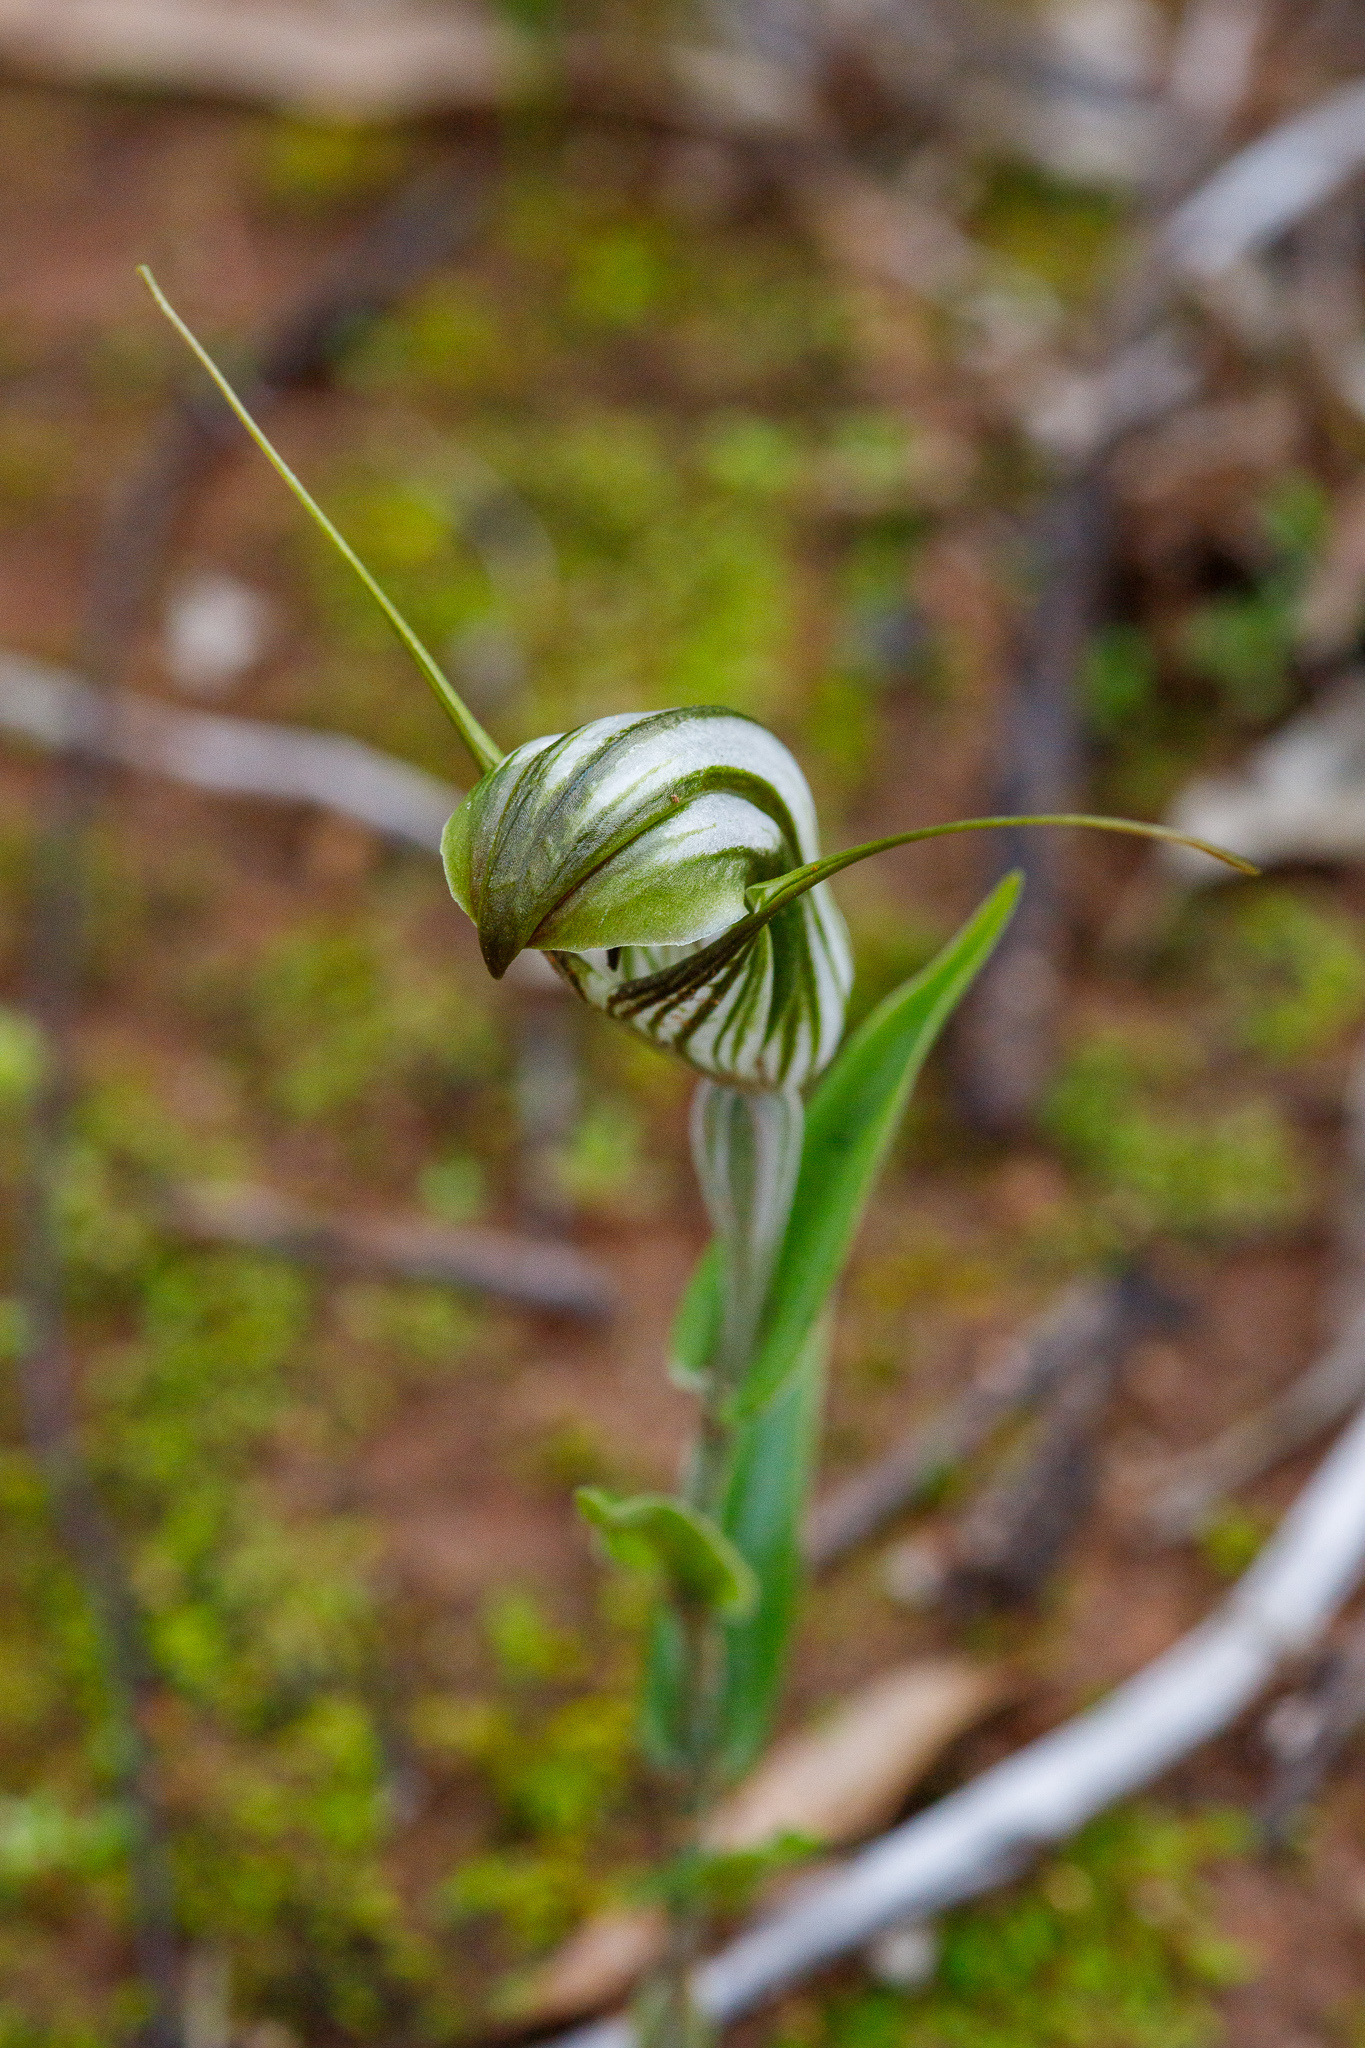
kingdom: Plantae
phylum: Tracheophyta
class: Liliopsida
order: Asparagales
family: Orchidaceae
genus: Pterostylis
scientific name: Pterostylis scabra
